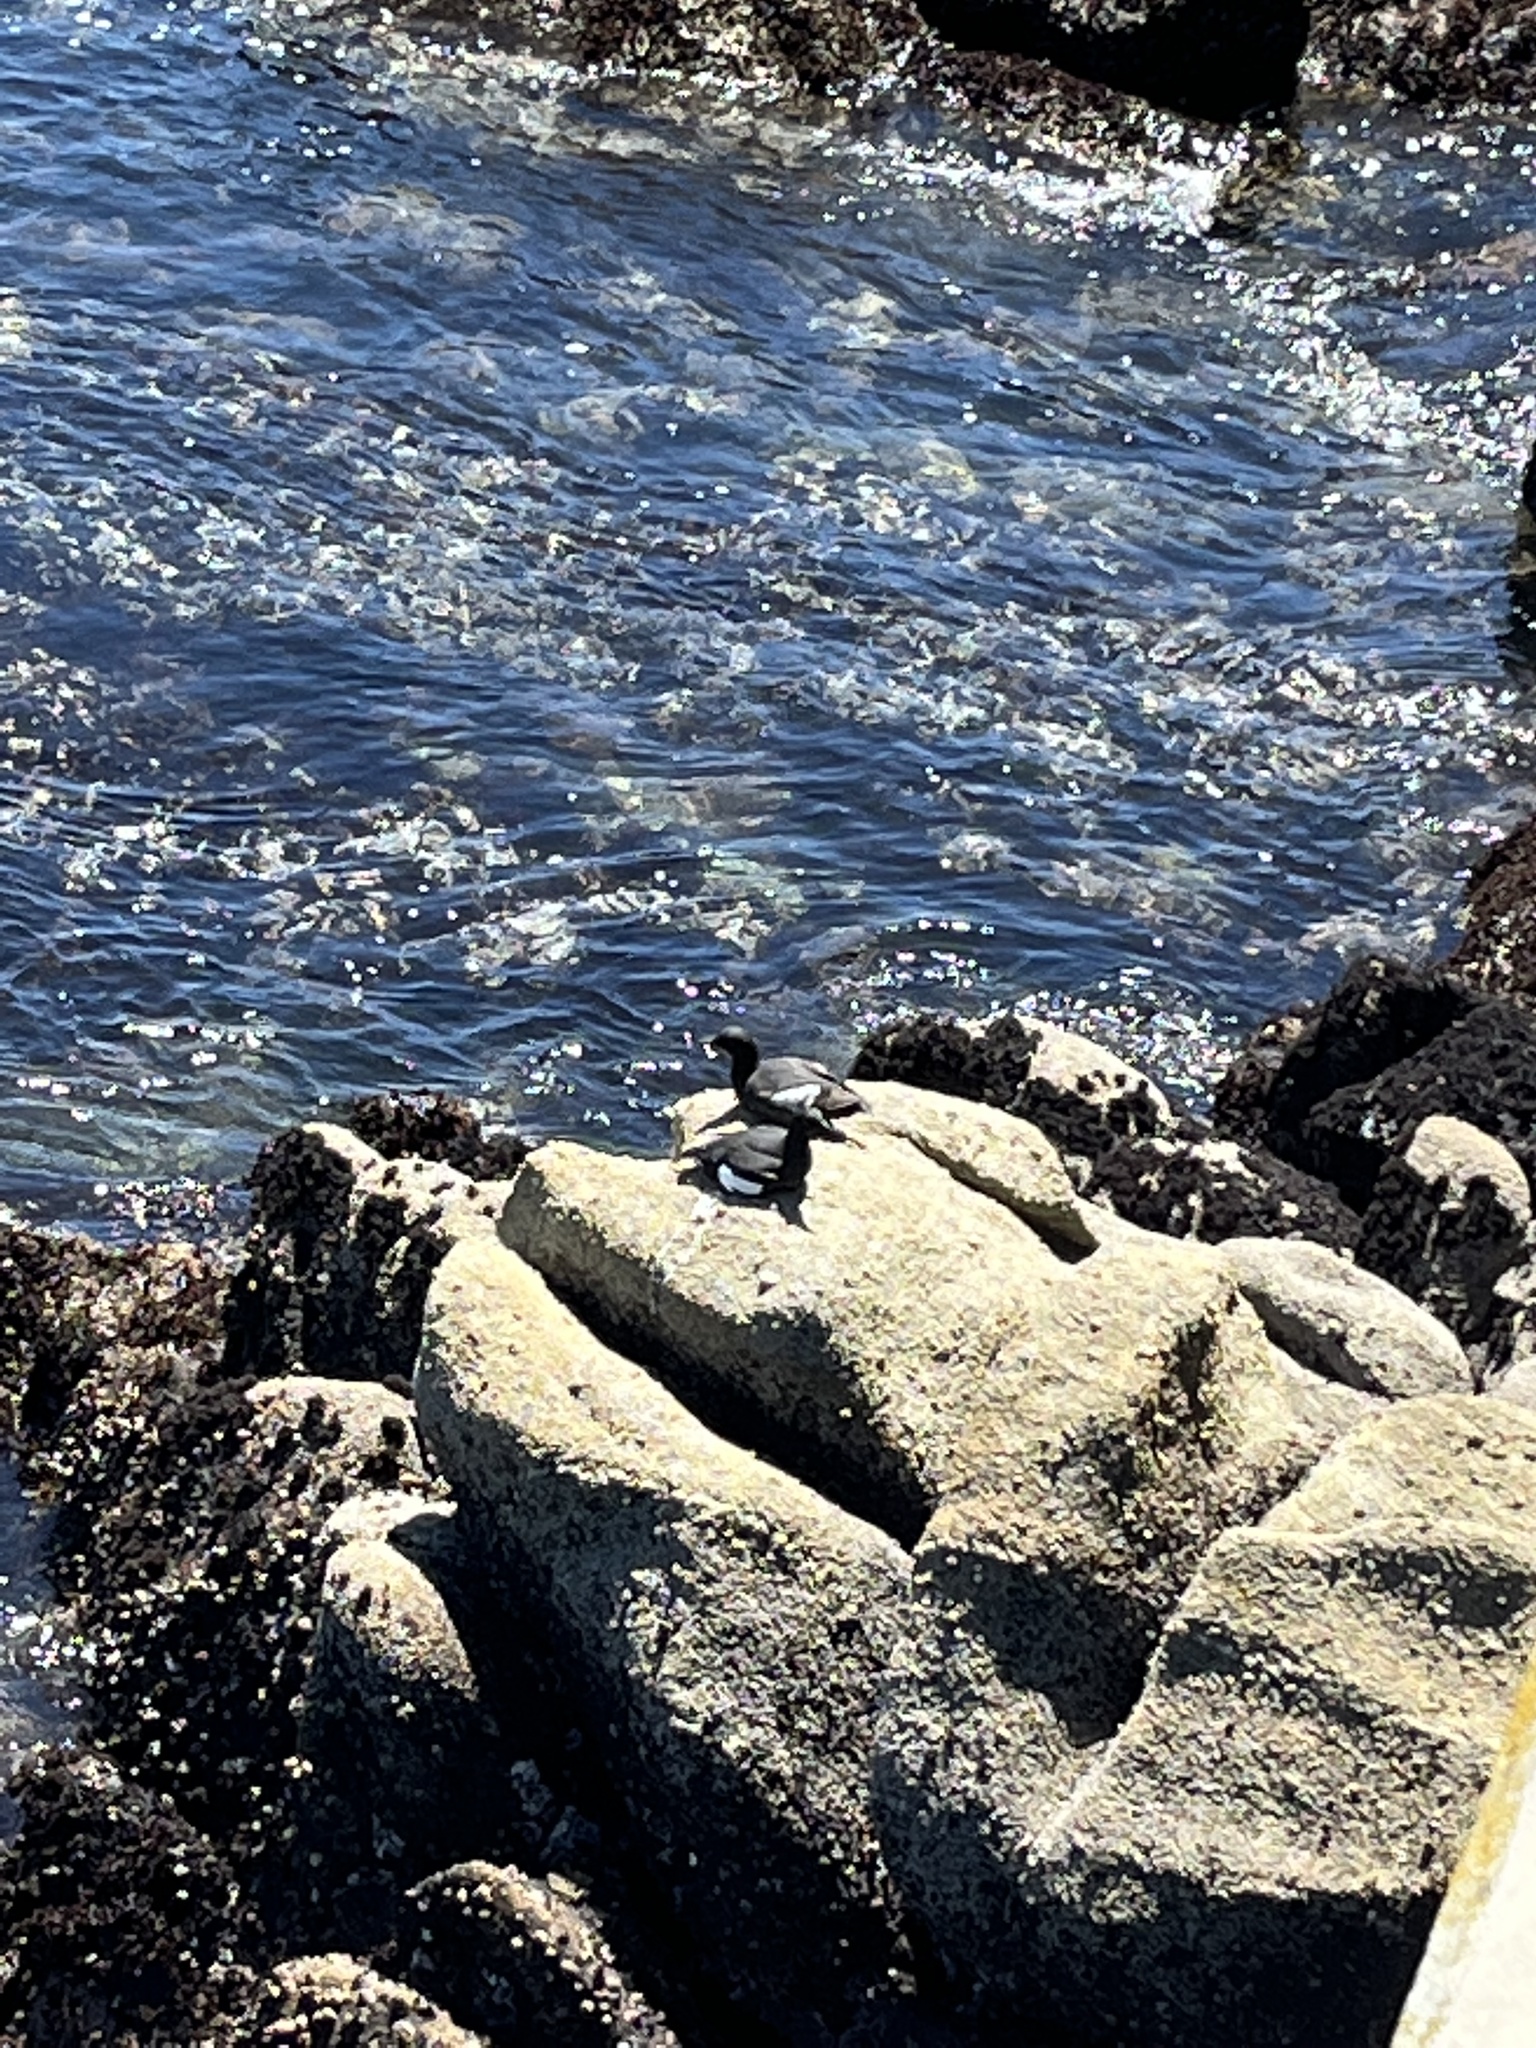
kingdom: Animalia
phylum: Chordata
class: Aves
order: Charadriiformes
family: Alcidae
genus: Cepphus
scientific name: Cepphus columba
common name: Pigeon guillemot
